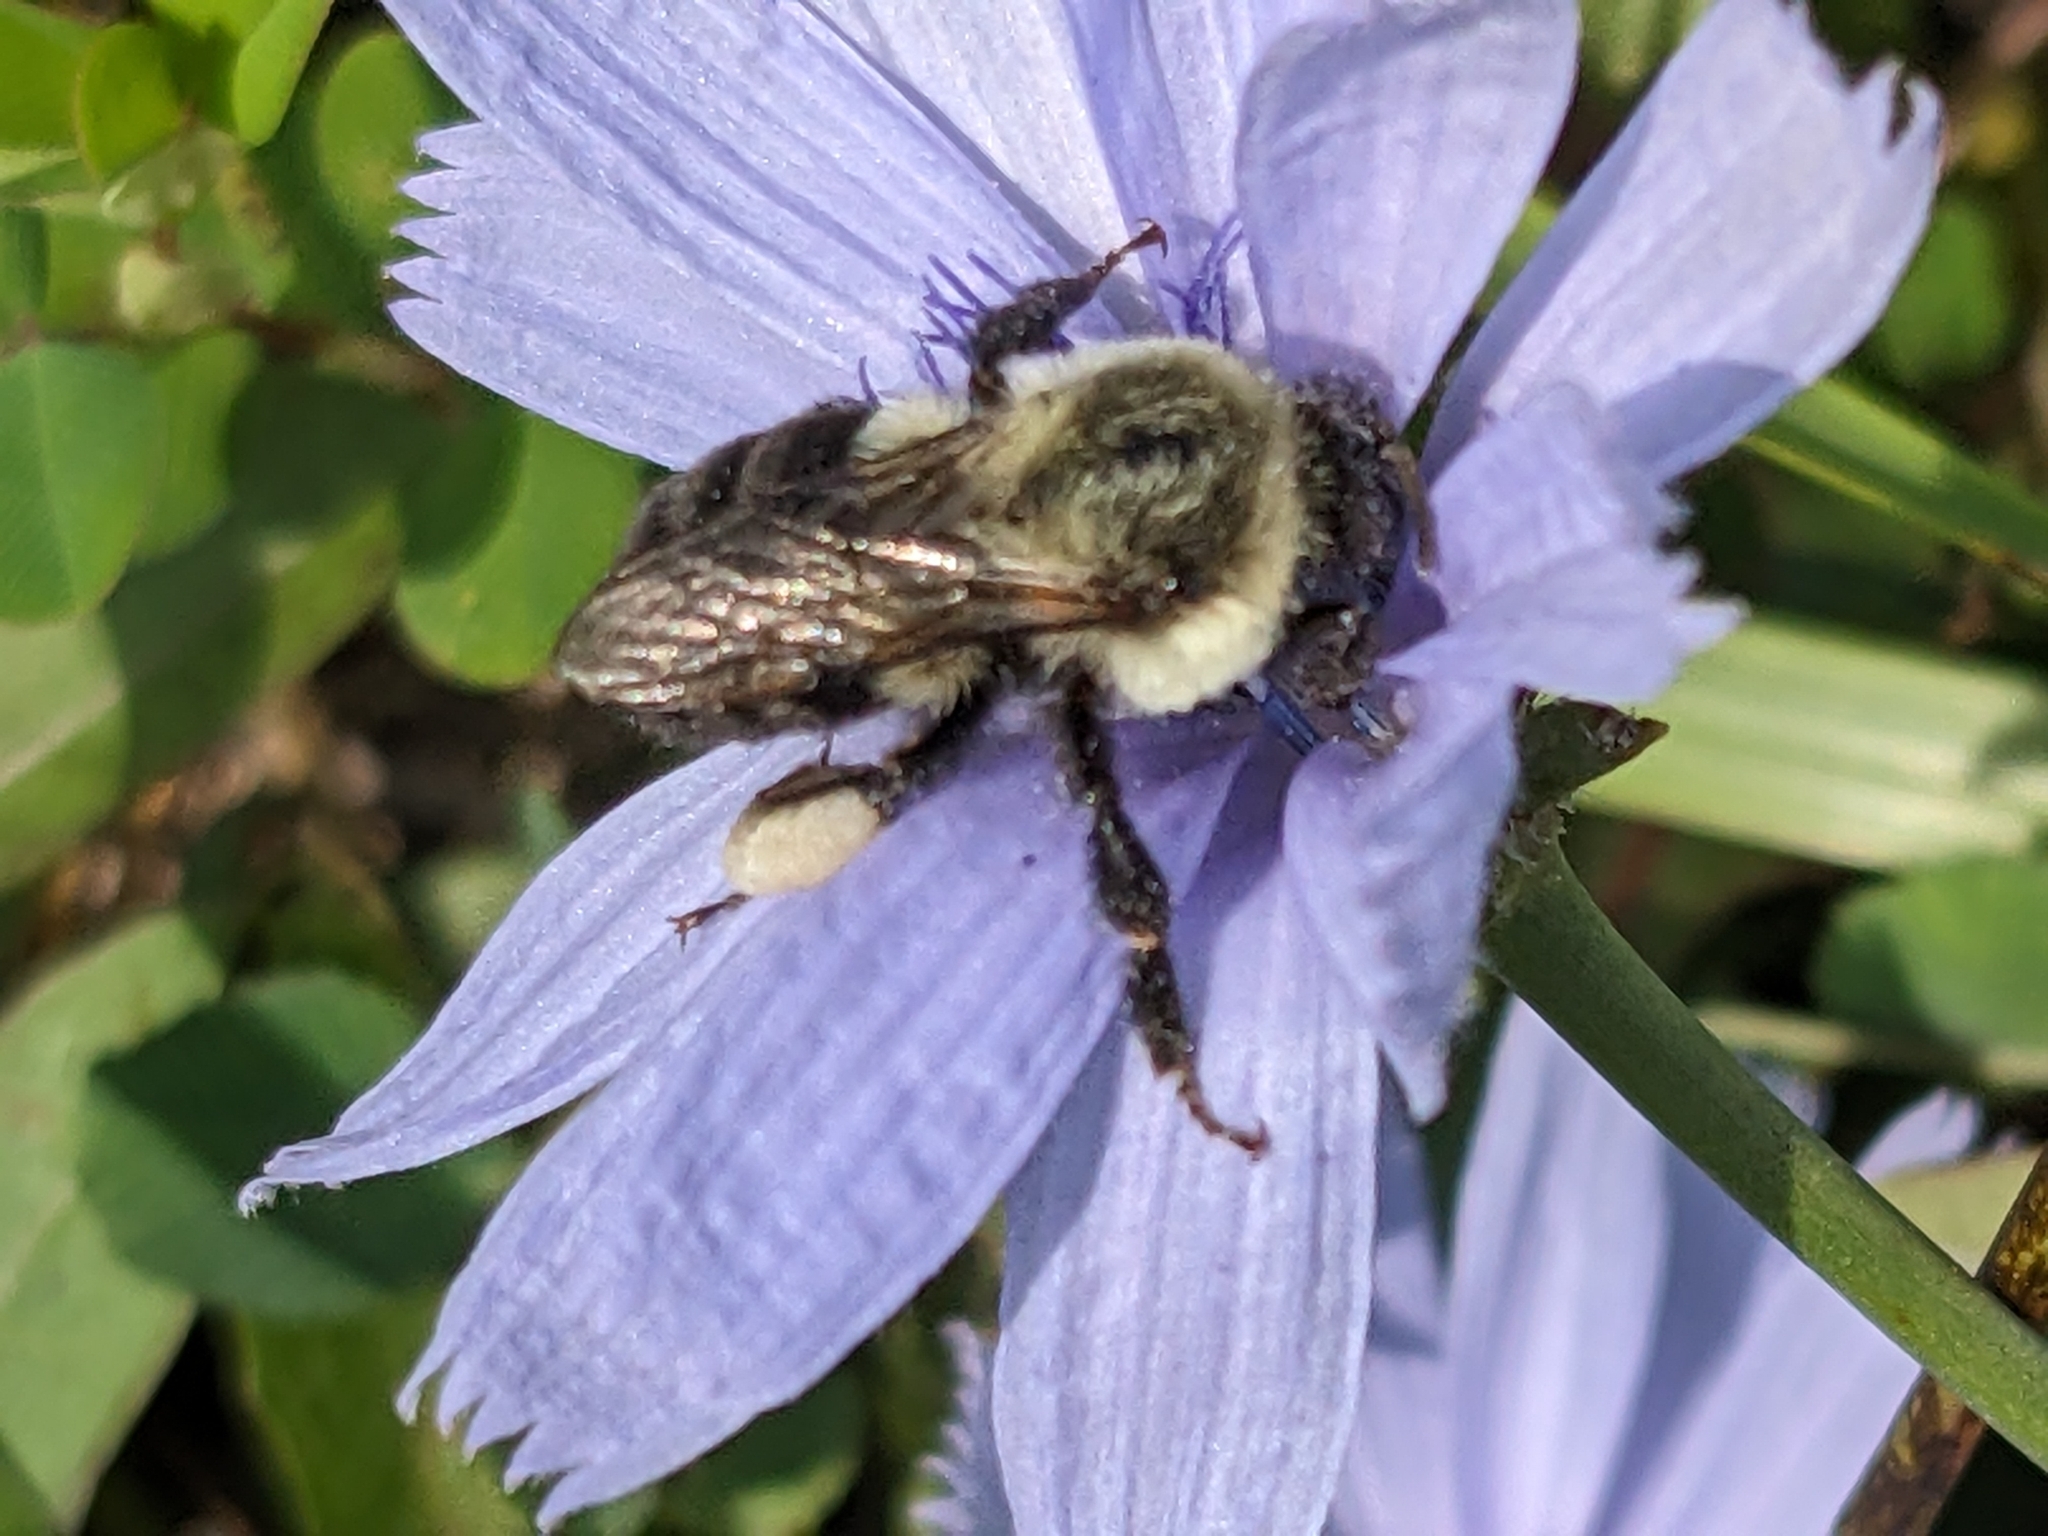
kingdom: Animalia
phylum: Arthropoda
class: Insecta
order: Hymenoptera
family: Apidae
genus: Bombus
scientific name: Bombus impatiens
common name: Common eastern bumble bee
